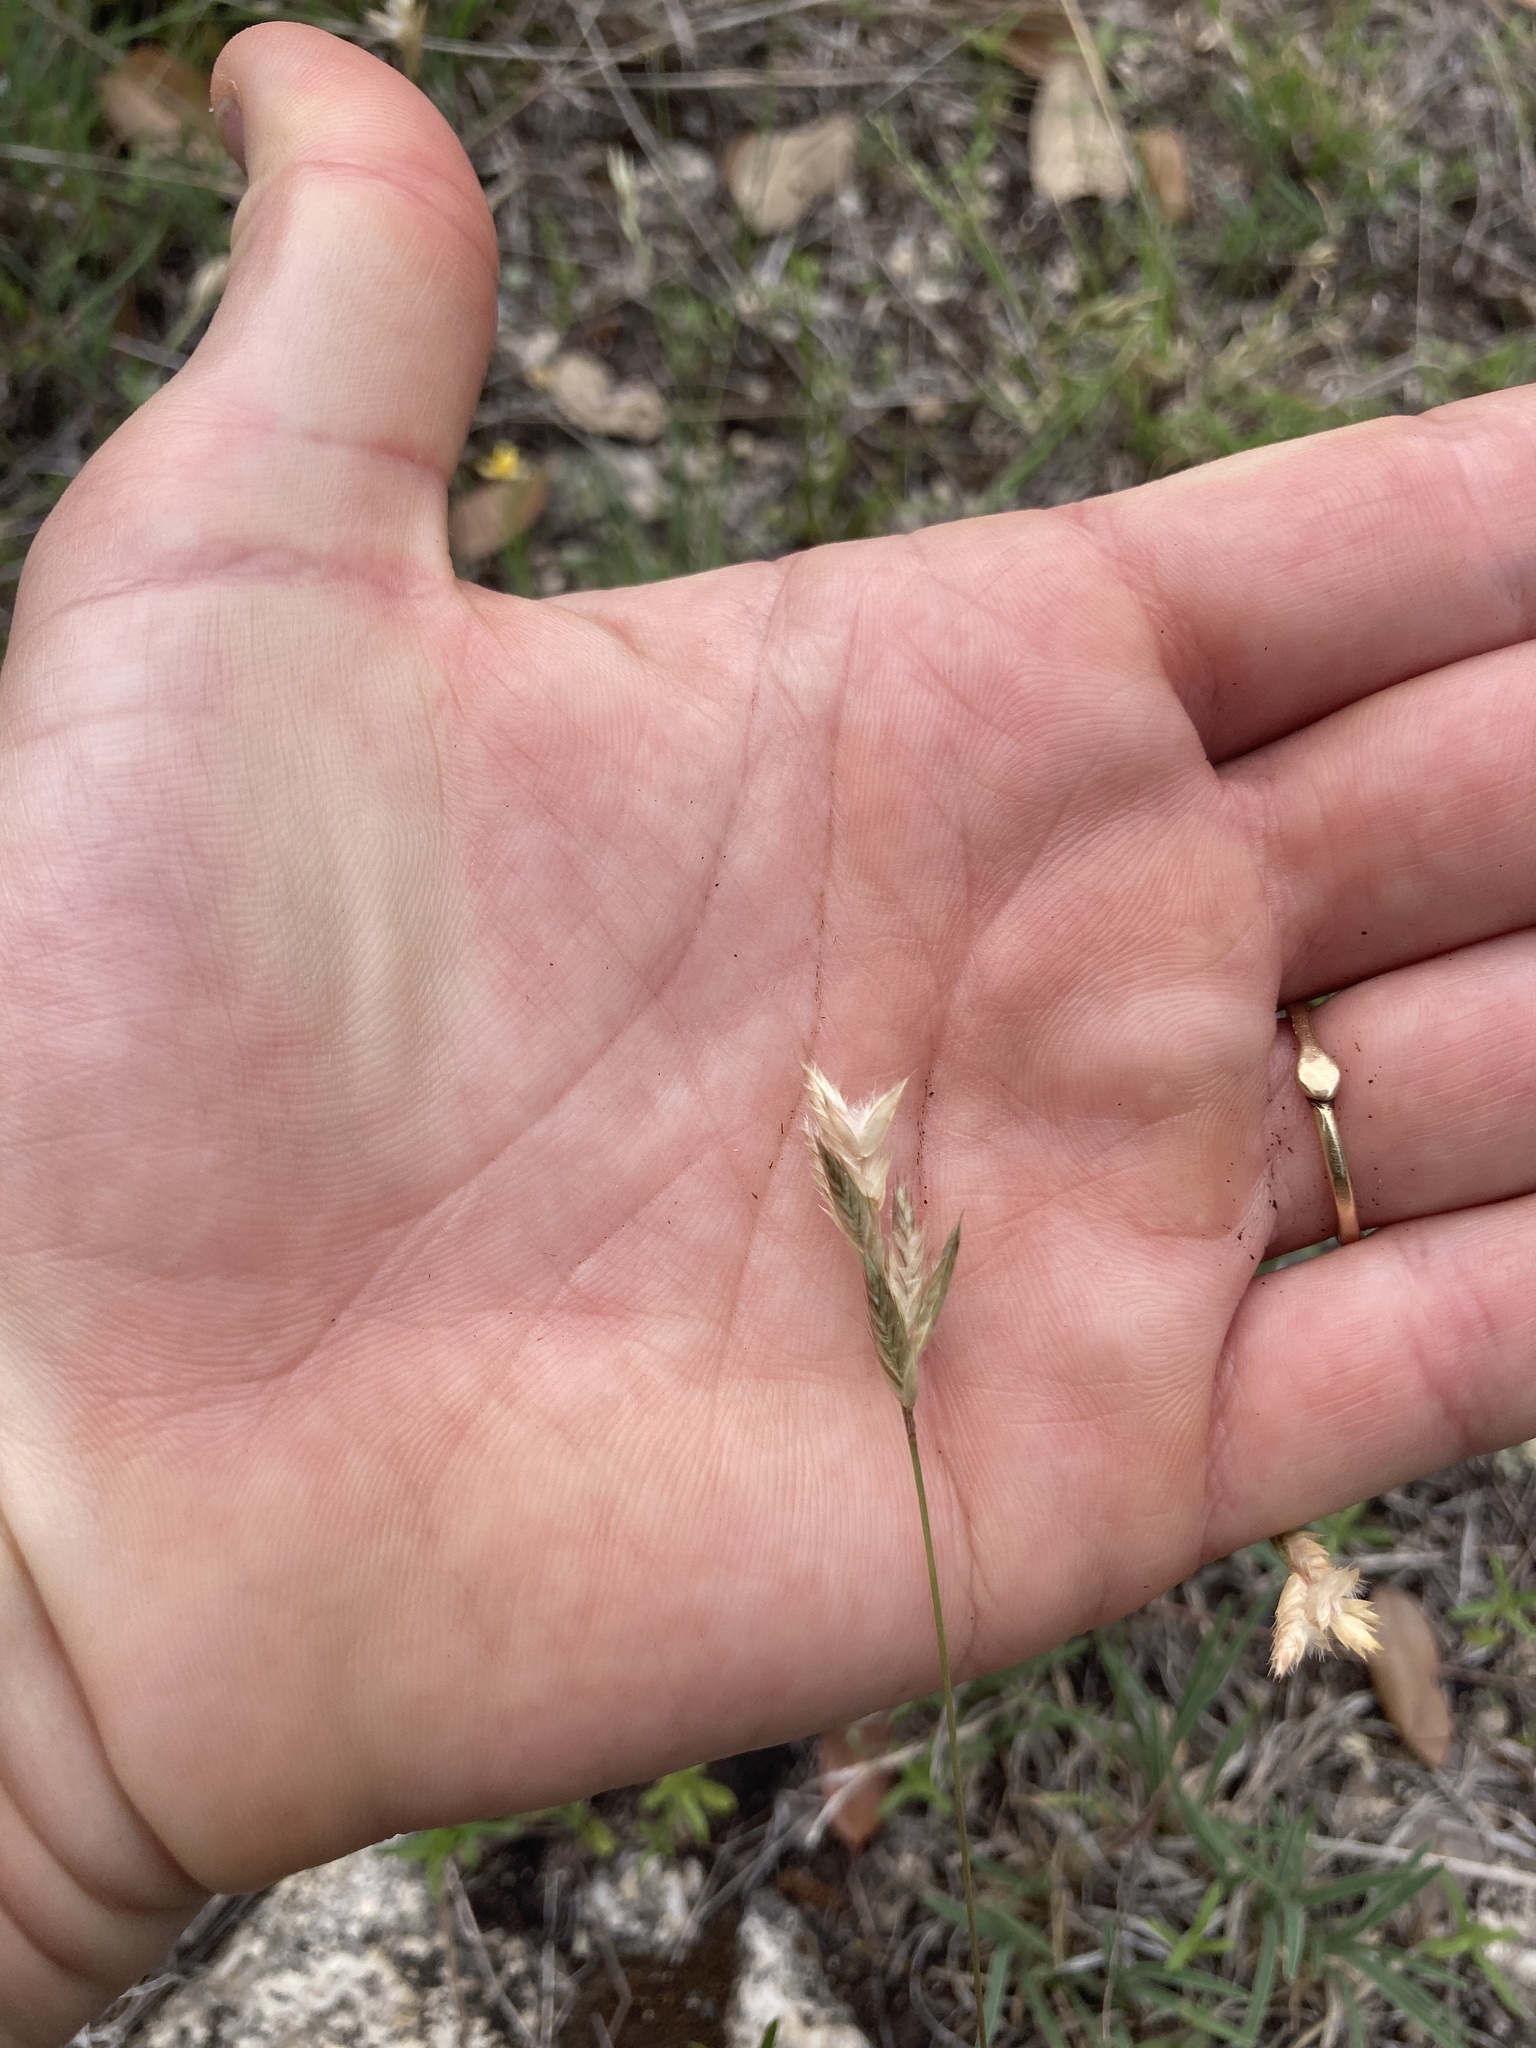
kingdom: Plantae
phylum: Tracheophyta
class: Liliopsida
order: Poales
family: Poaceae
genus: Erioneuron
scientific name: Erioneuron pilosum
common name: Hairy woolly grass
